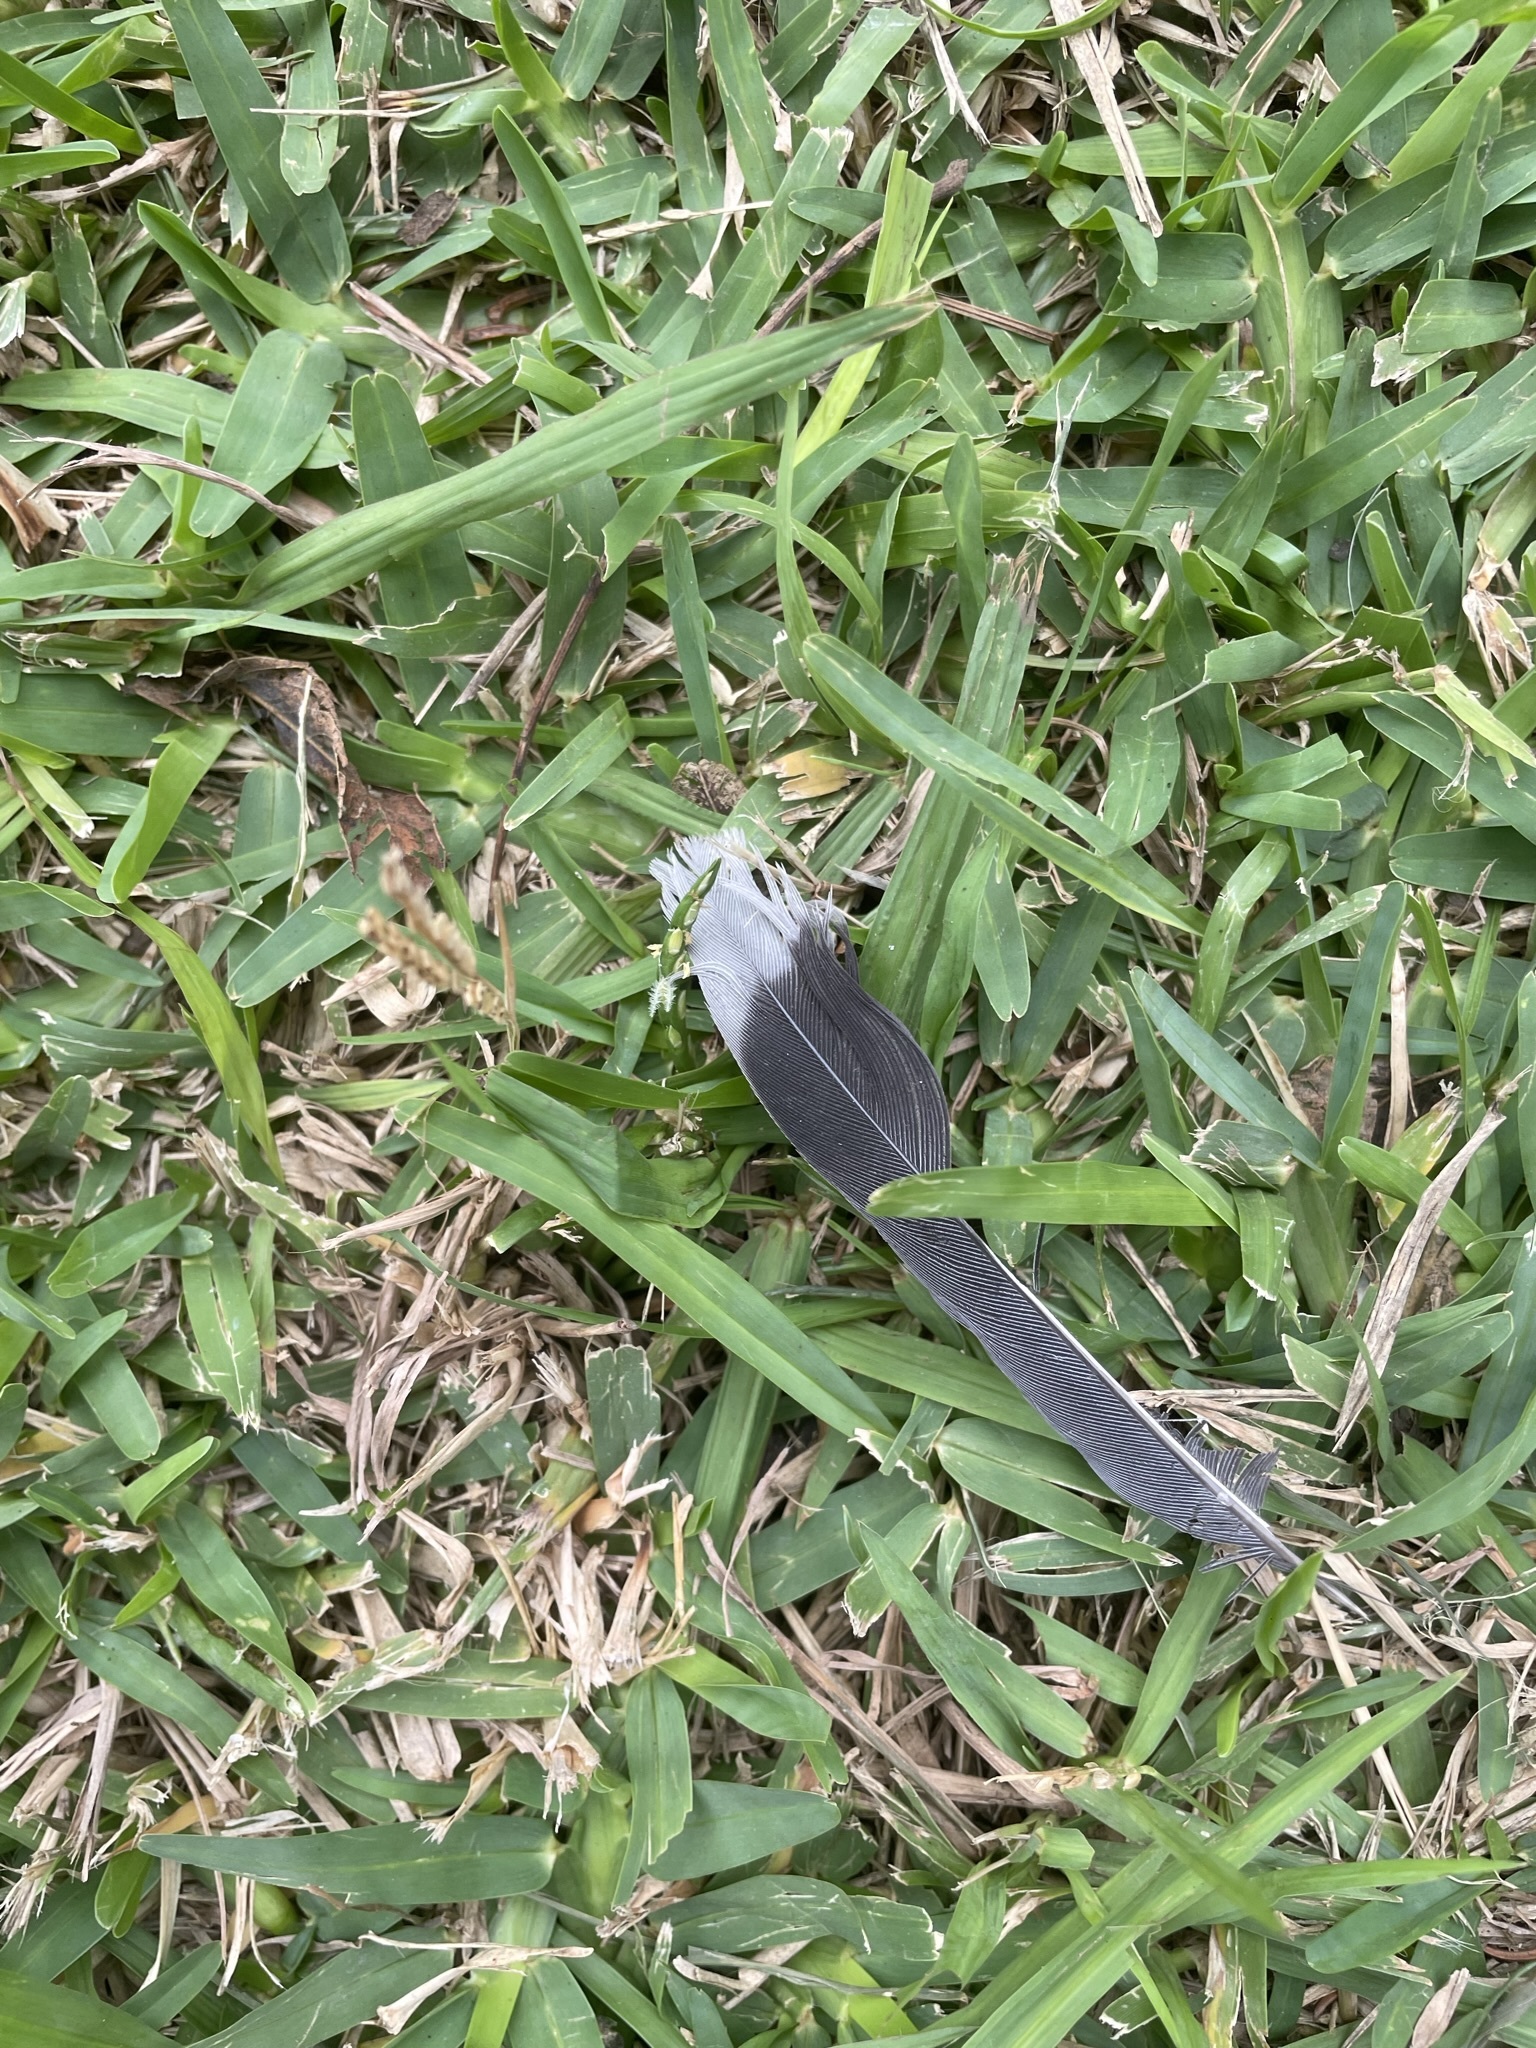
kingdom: Animalia
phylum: Chordata
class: Aves
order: Columbiformes
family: Columbidae
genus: Zenaida
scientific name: Zenaida meloda
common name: West peruvian dove
